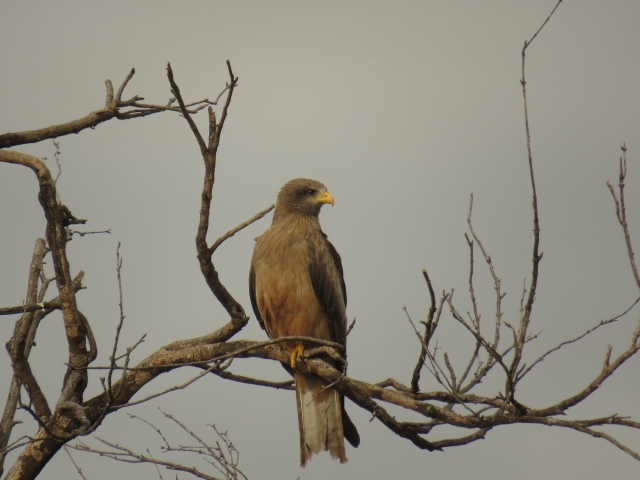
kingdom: Animalia
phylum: Chordata
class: Aves
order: Accipitriformes
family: Accipitridae
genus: Milvus
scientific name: Milvus migrans
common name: Black kite
